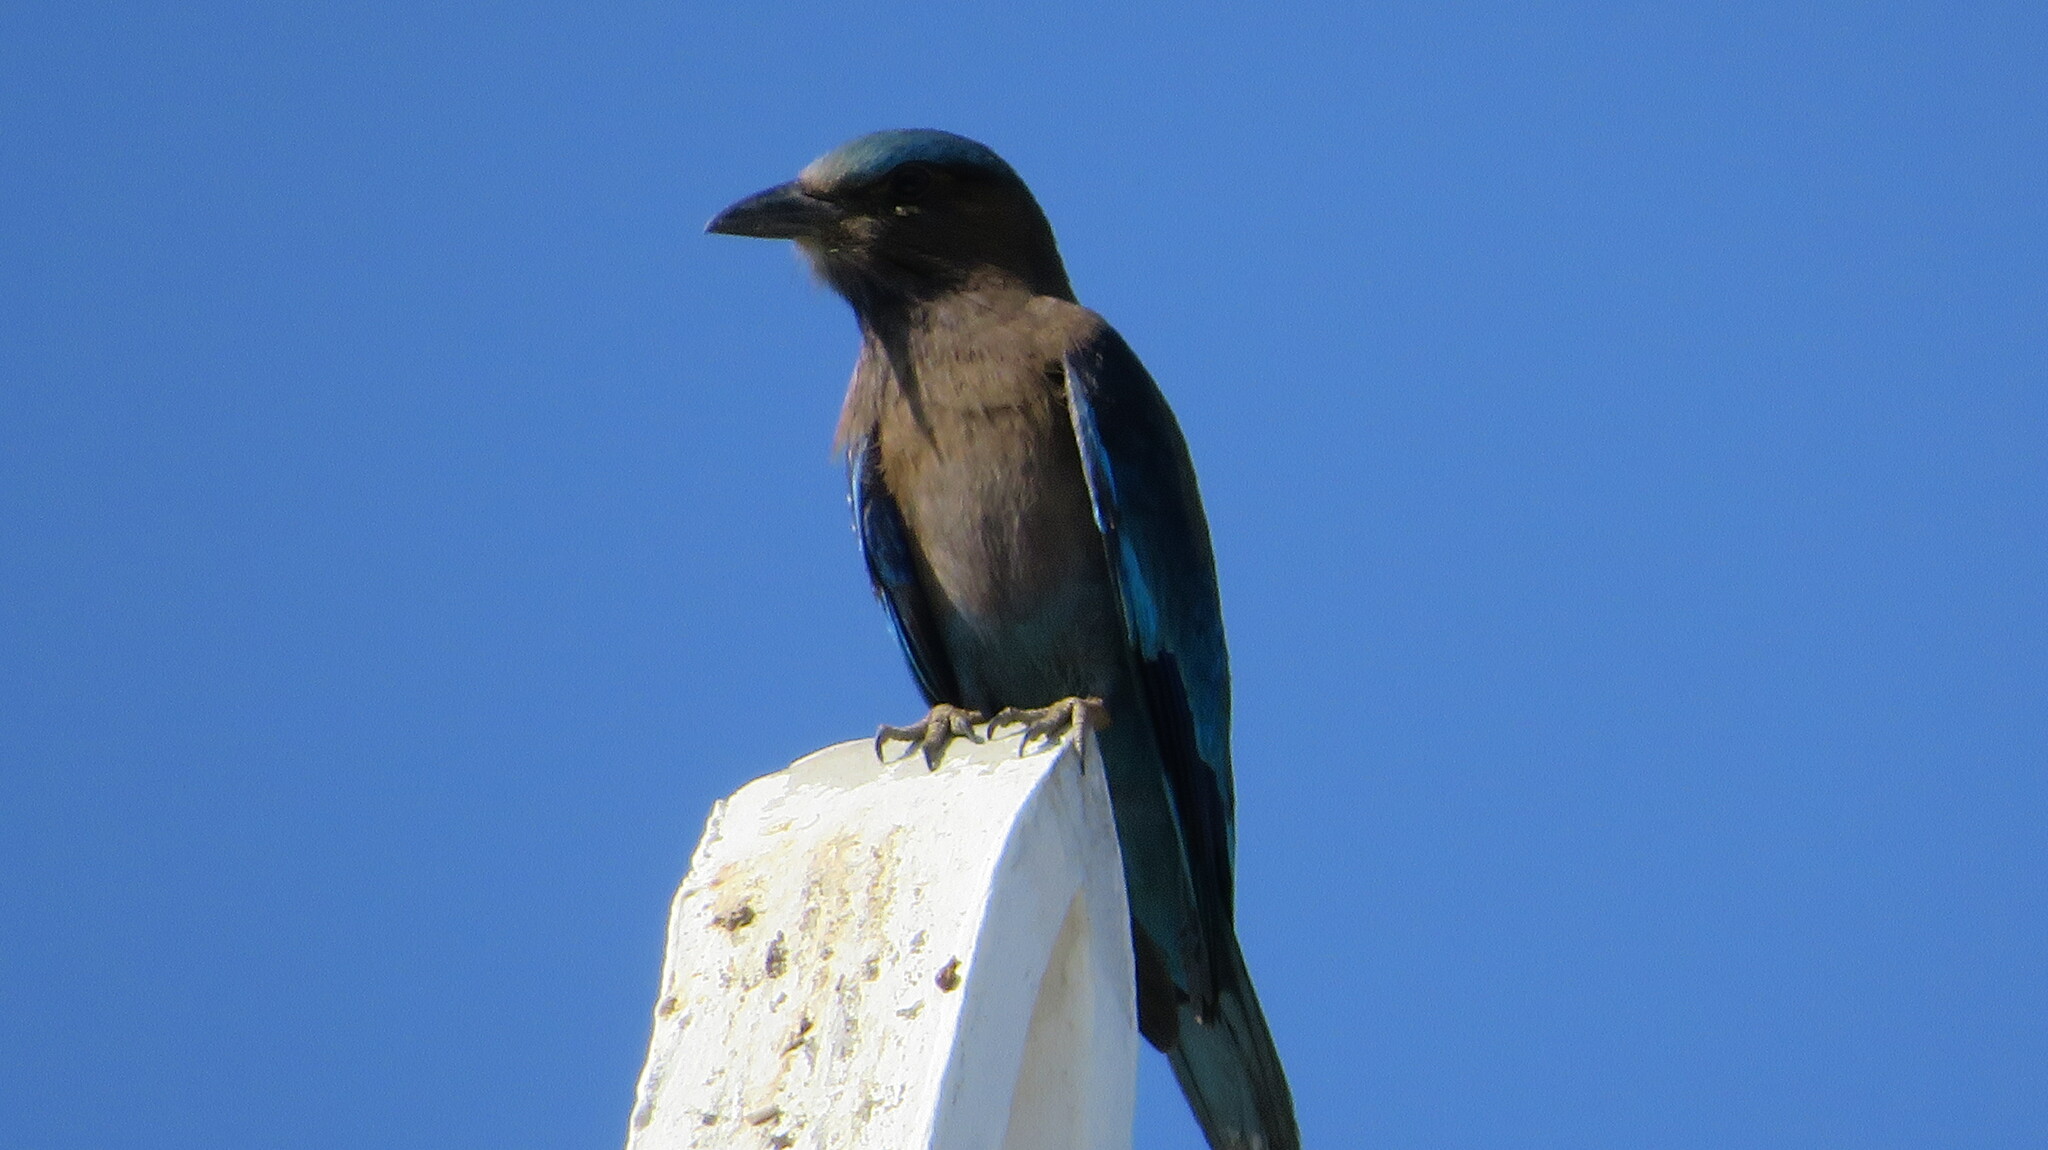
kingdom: Animalia
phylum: Chordata
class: Aves
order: Coraciiformes
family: Coraciidae
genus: Coracias
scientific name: Coracias affinis
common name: Indochinese roller
